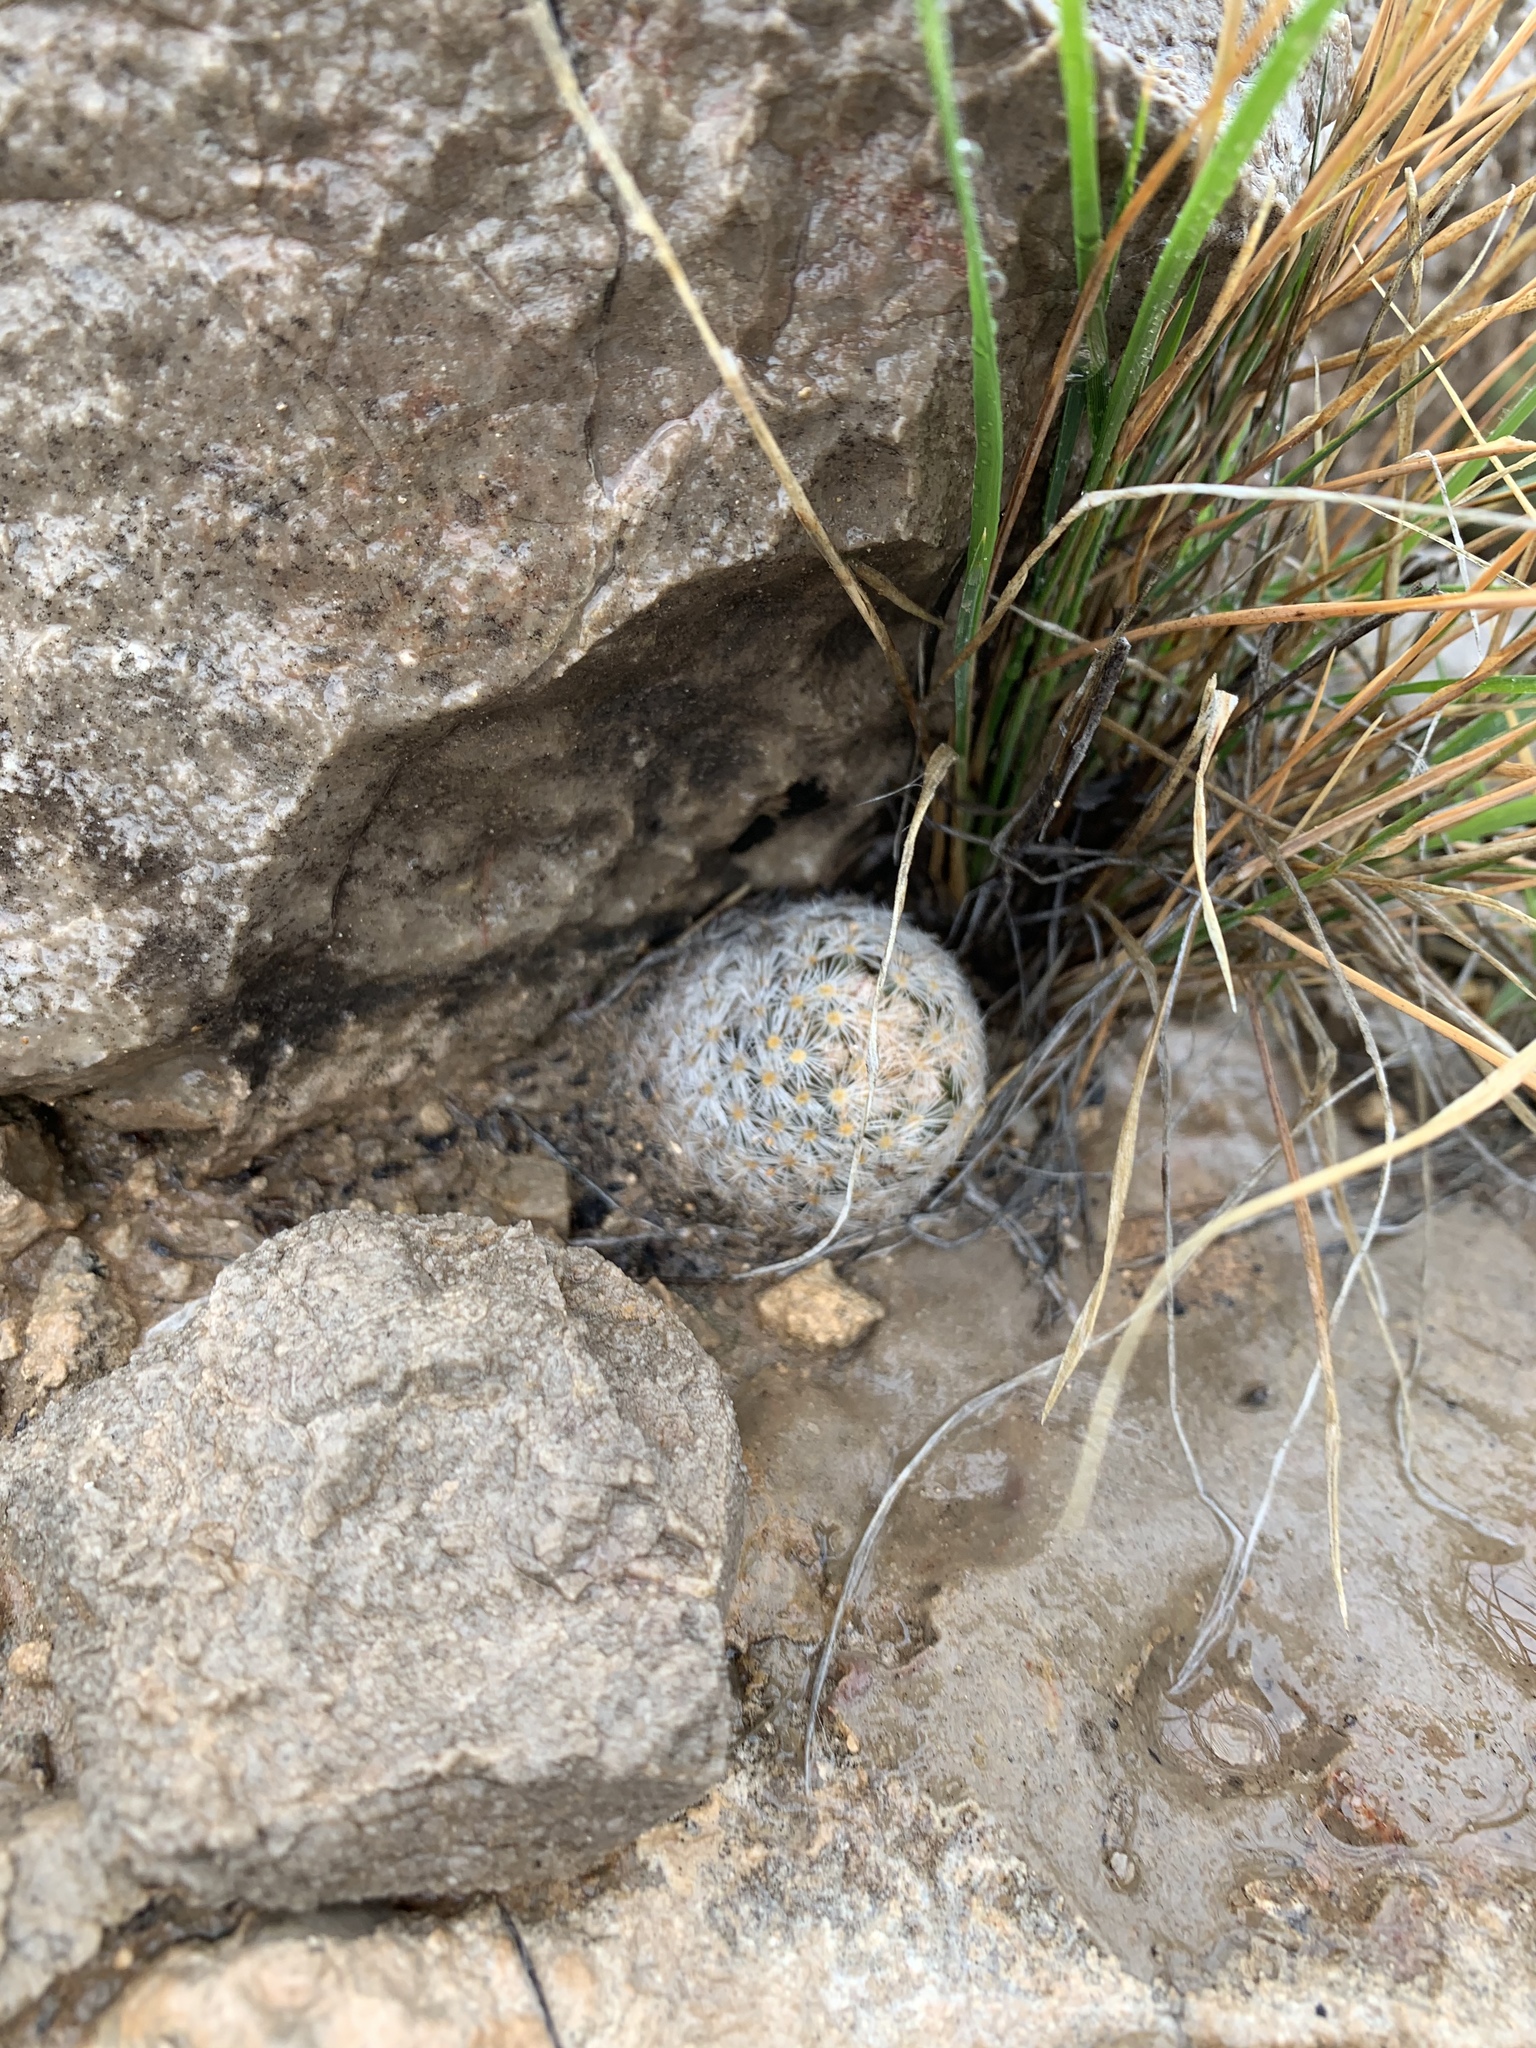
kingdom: Plantae
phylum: Tracheophyta
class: Magnoliopsida
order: Caryophyllales
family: Cactaceae
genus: Mammillaria
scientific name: Mammillaria lasiacantha
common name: Lace-spine nipple cactus
